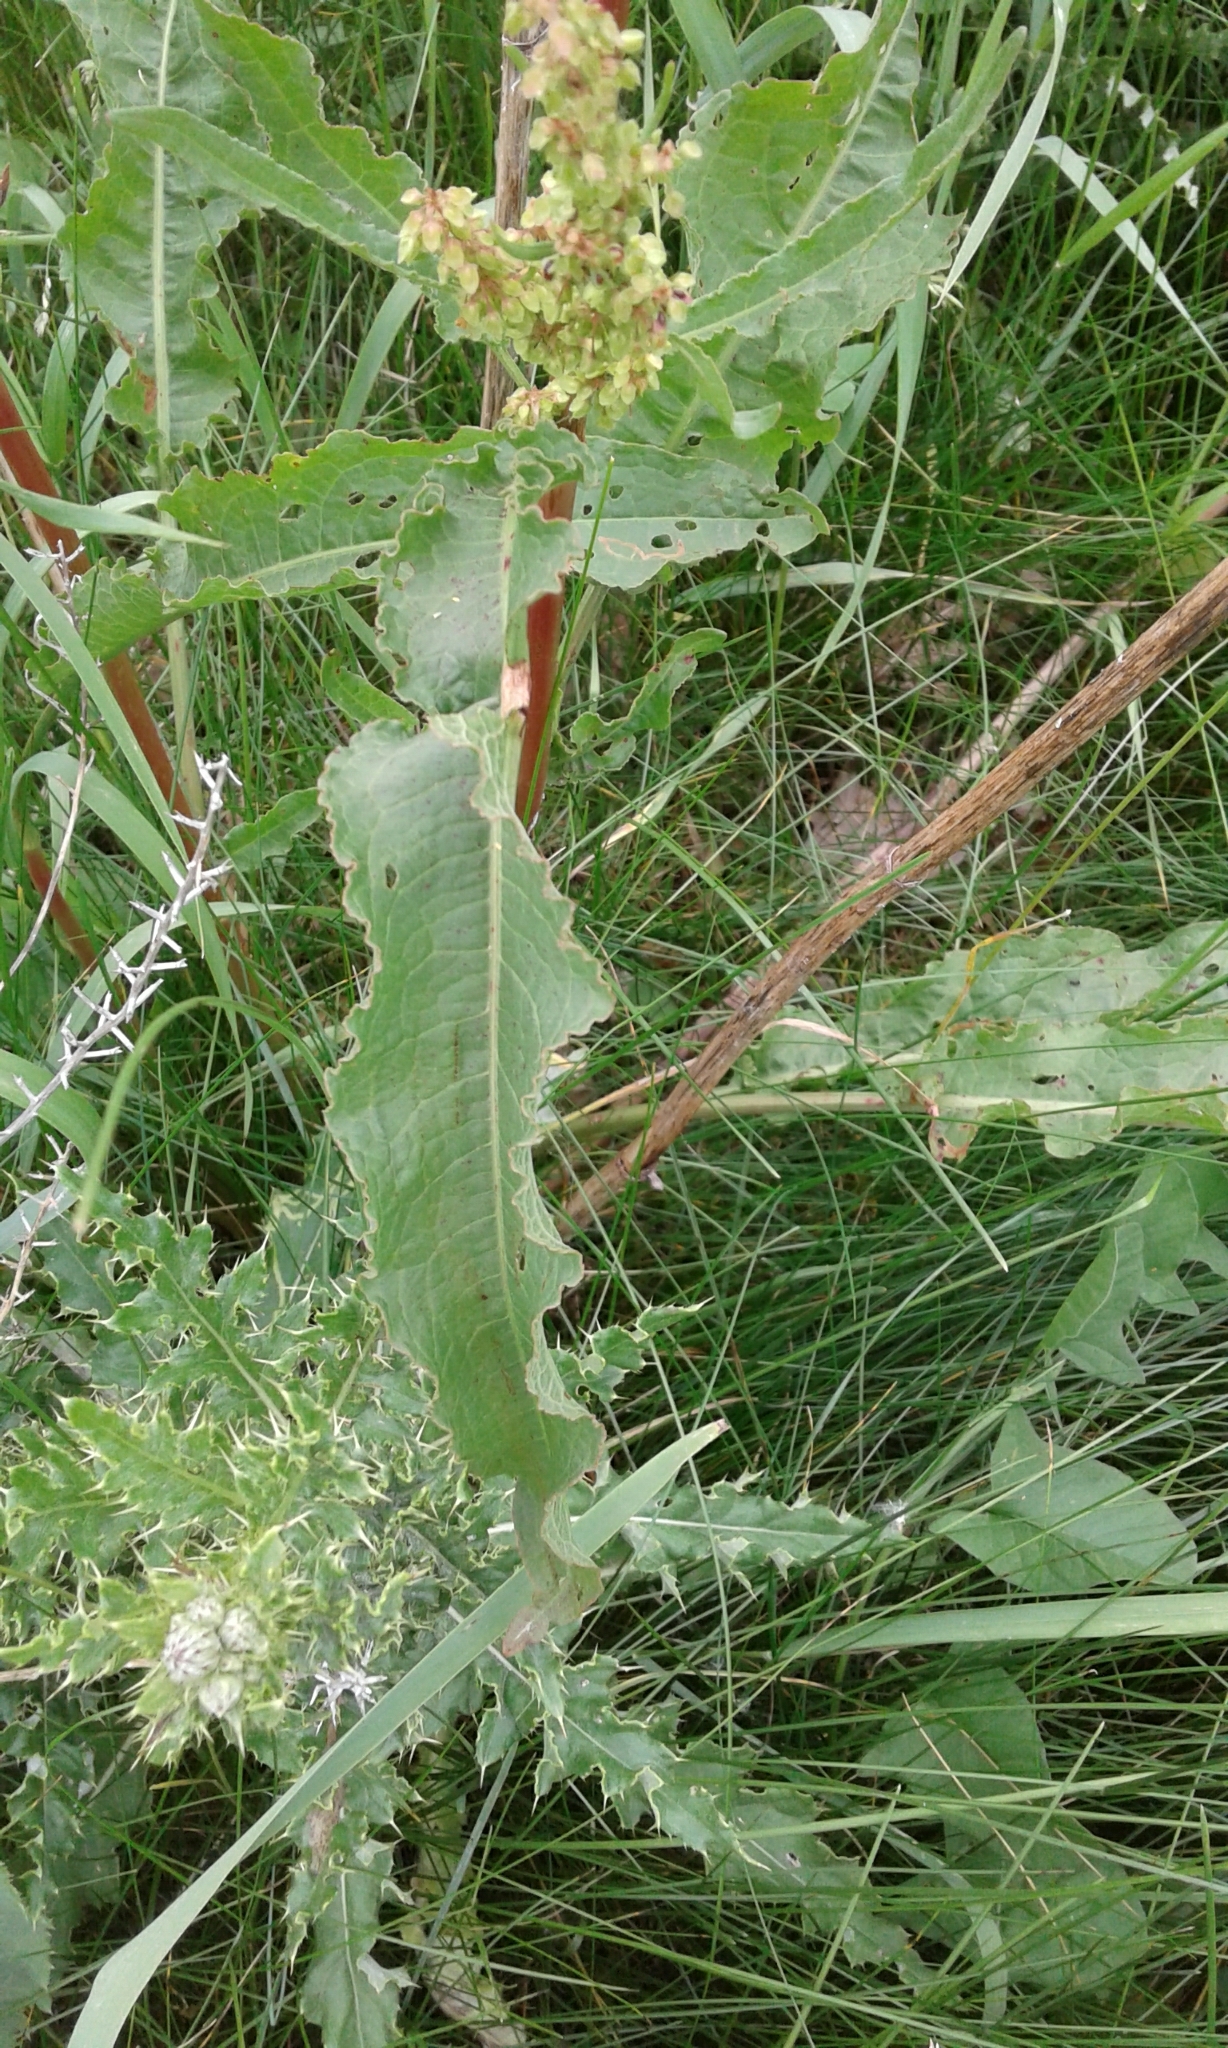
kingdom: Plantae
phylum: Tracheophyta
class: Magnoliopsida
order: Caryophyllales
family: Polygonaceae
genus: Rumex
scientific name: Rumex crispus
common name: Curled dock
